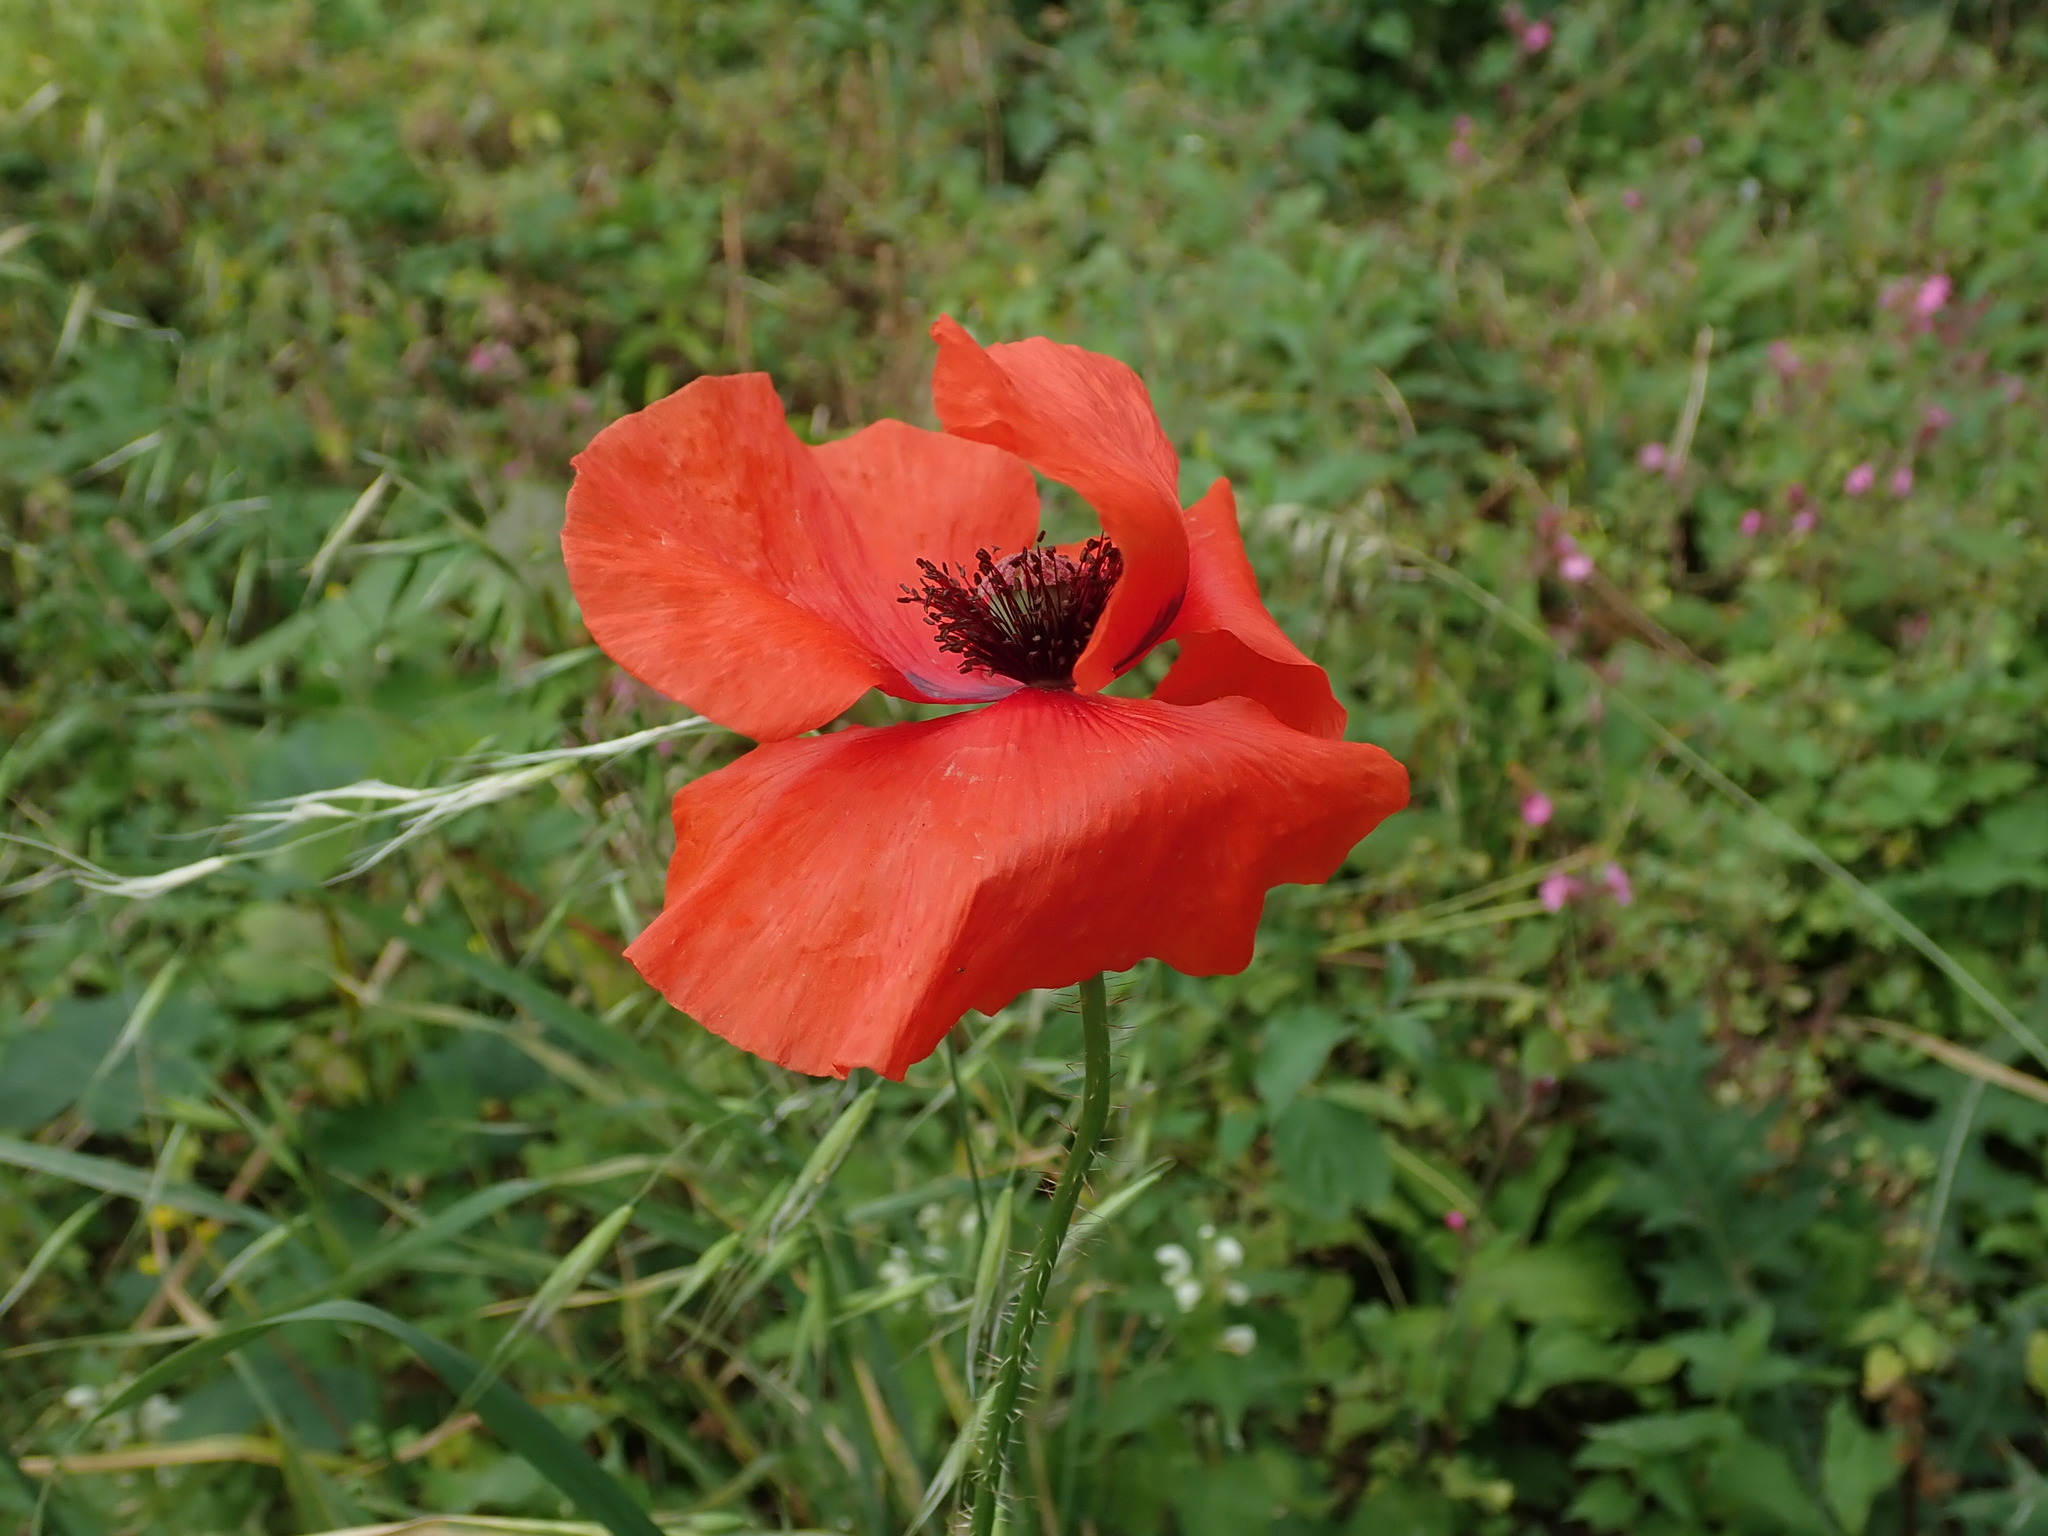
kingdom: Plantae
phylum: Tracheophyta
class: Magnoliopsida
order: Ranunculales
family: Papaveraceae
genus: Papaver
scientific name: Papaver rhoeas
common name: Corn poppy
